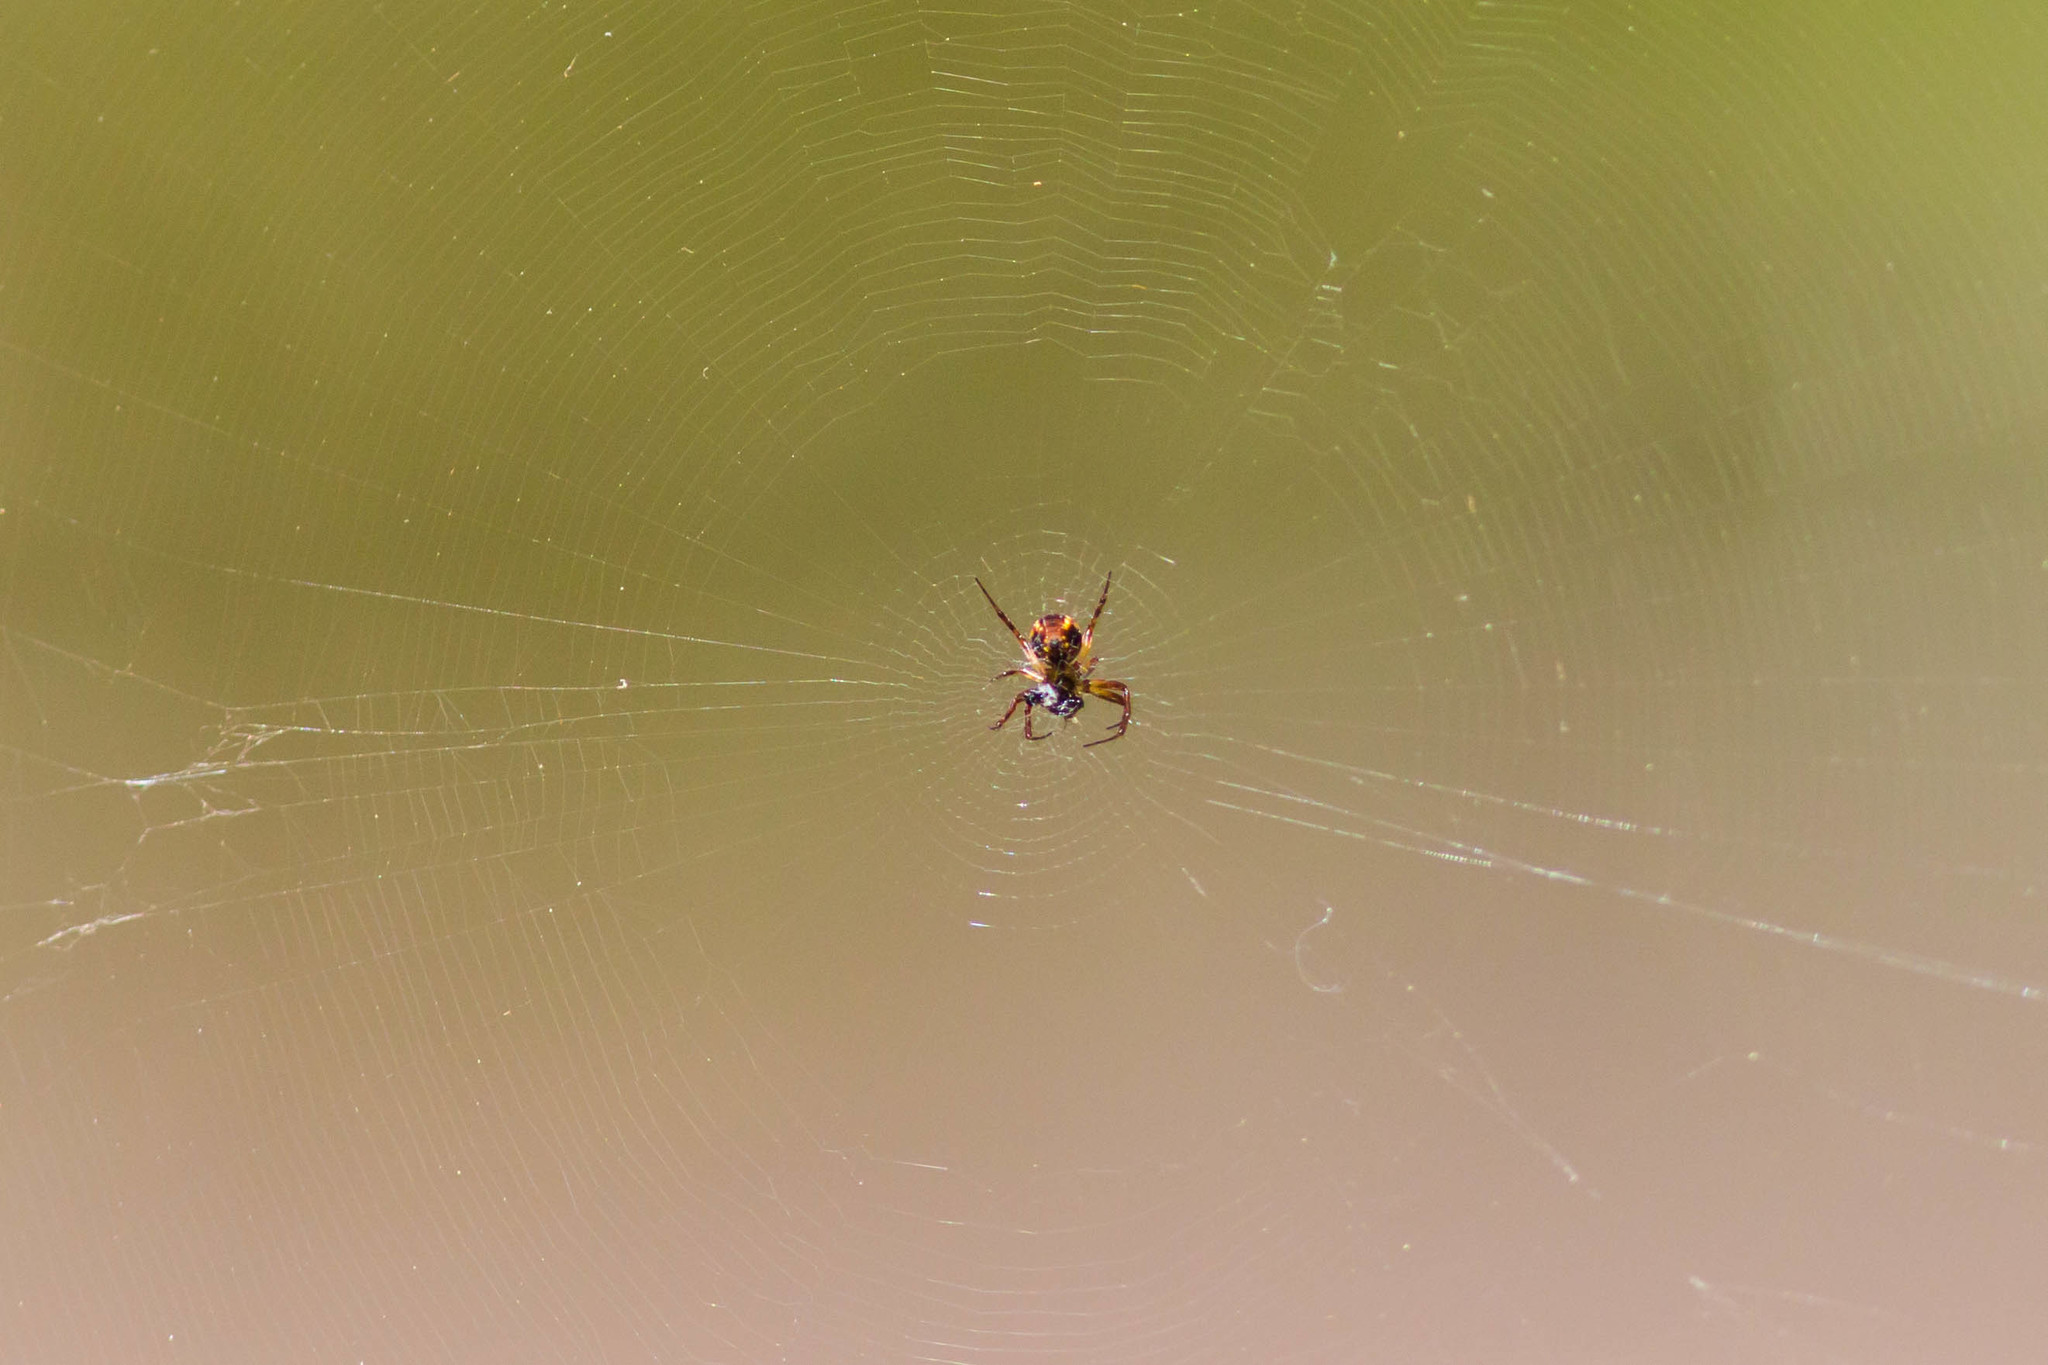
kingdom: Animalia
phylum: Arthropoda
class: Arachnida
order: Araneae
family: Araneidae
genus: Mangora
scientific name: Mangora placida
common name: Tuft-legged orbweaver
